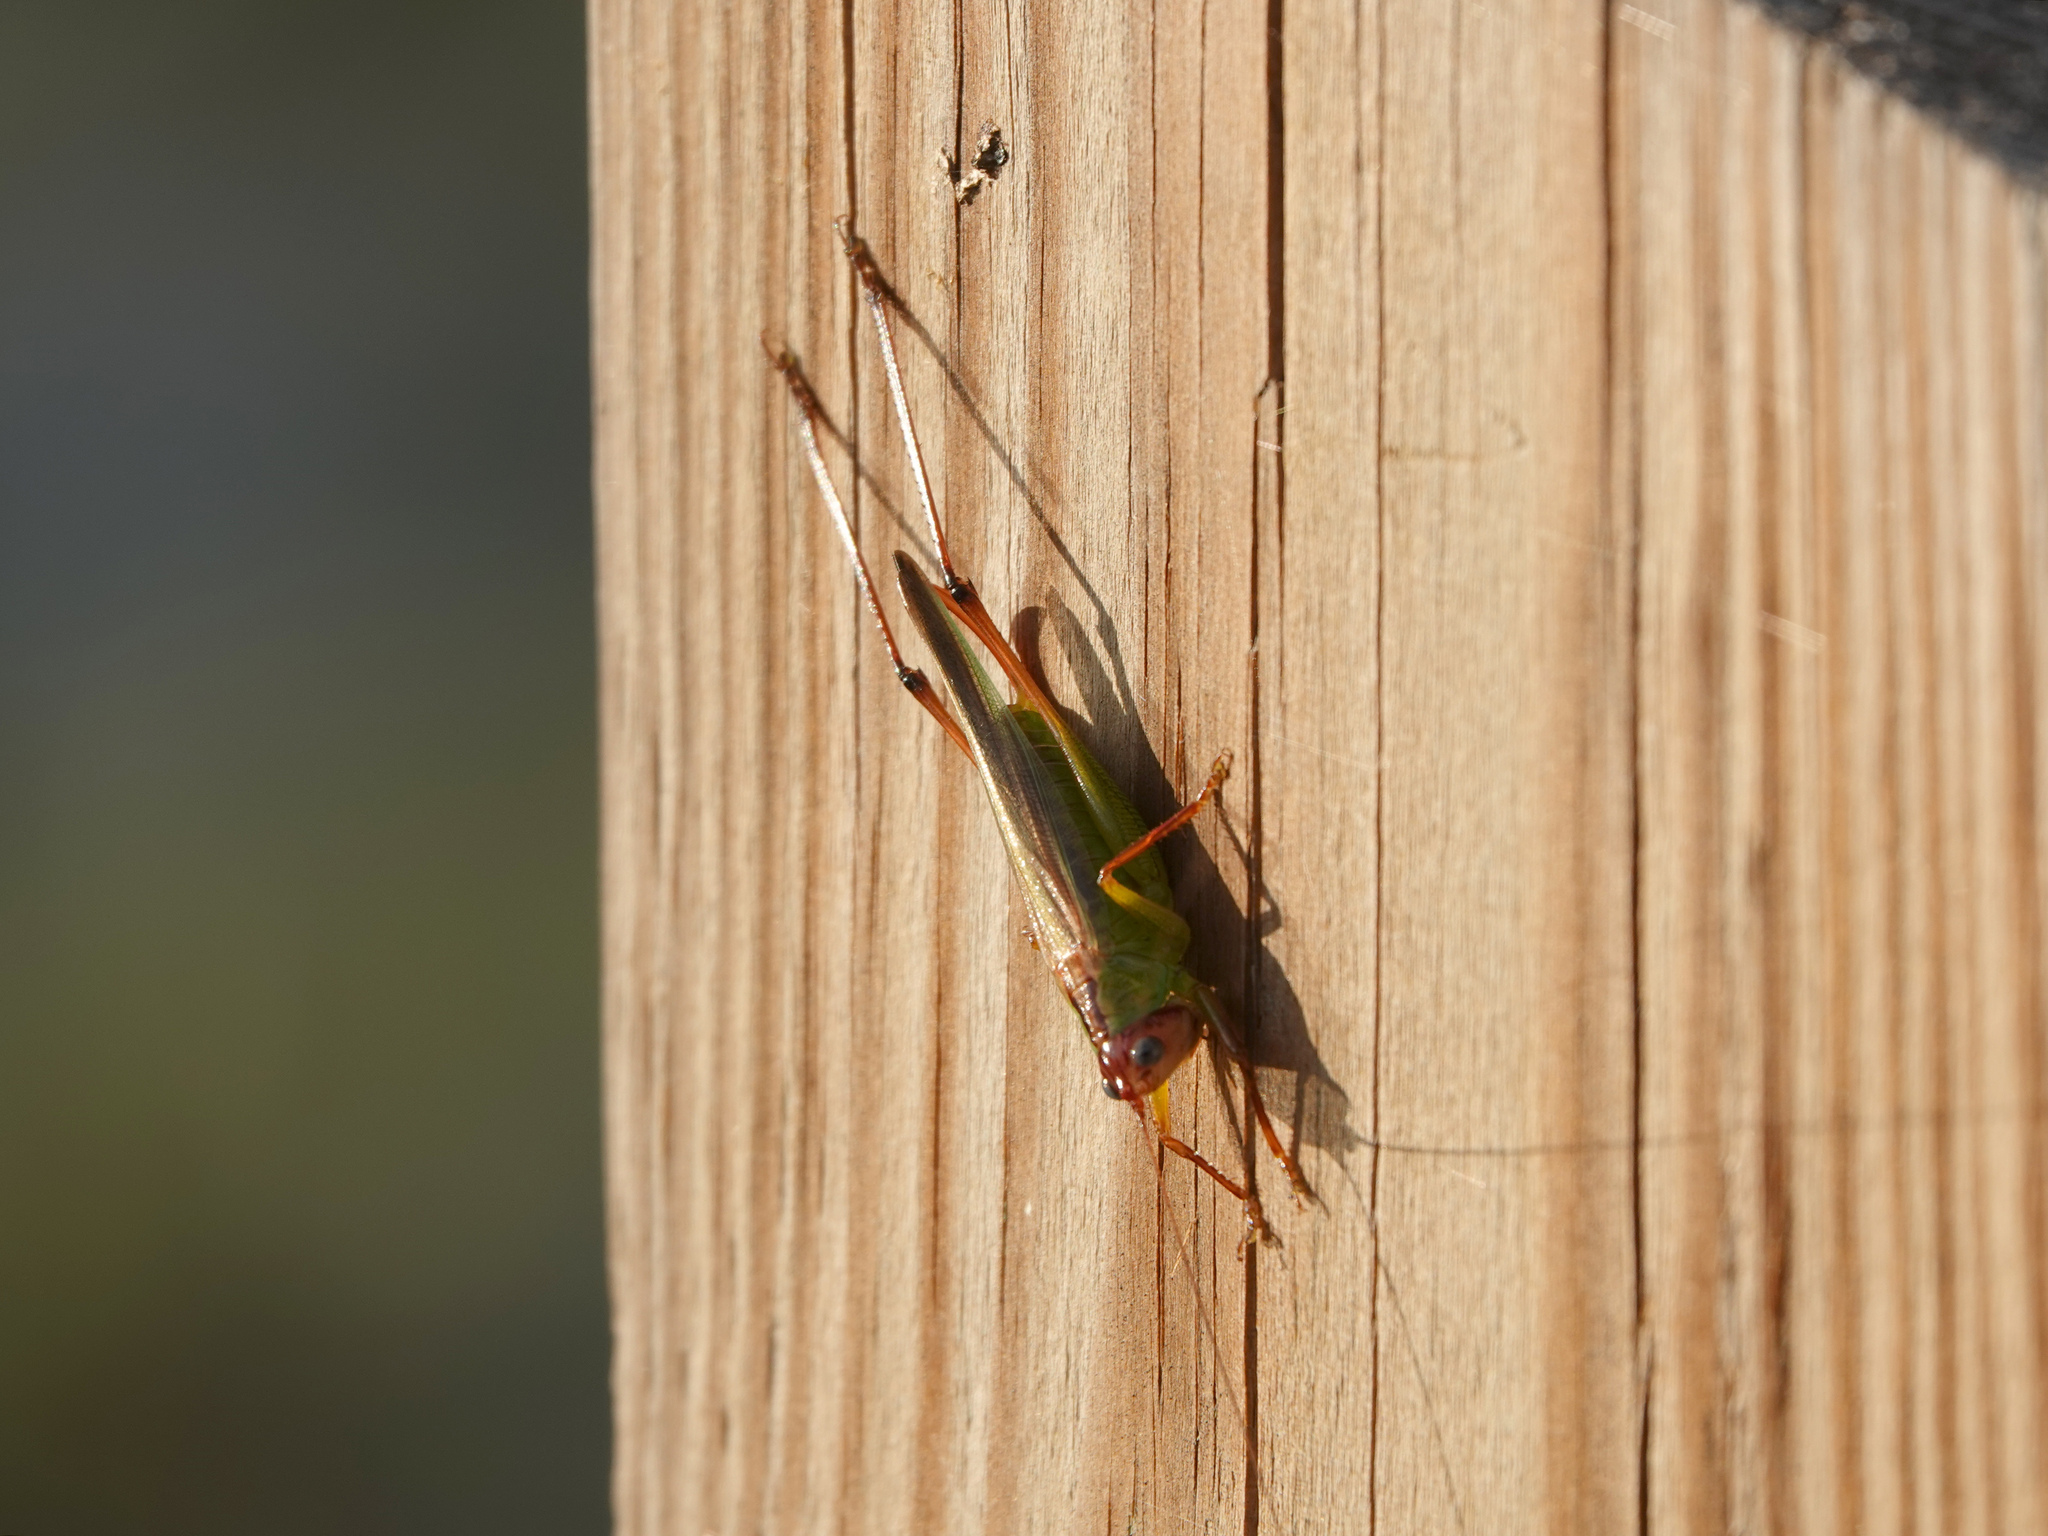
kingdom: Animalia
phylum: Arthropoda
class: Insecta
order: Orthoptera
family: Tettigoniidae
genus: Orchelimum
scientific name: Orchelimum pulchellum
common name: Handsome meadow katydid
